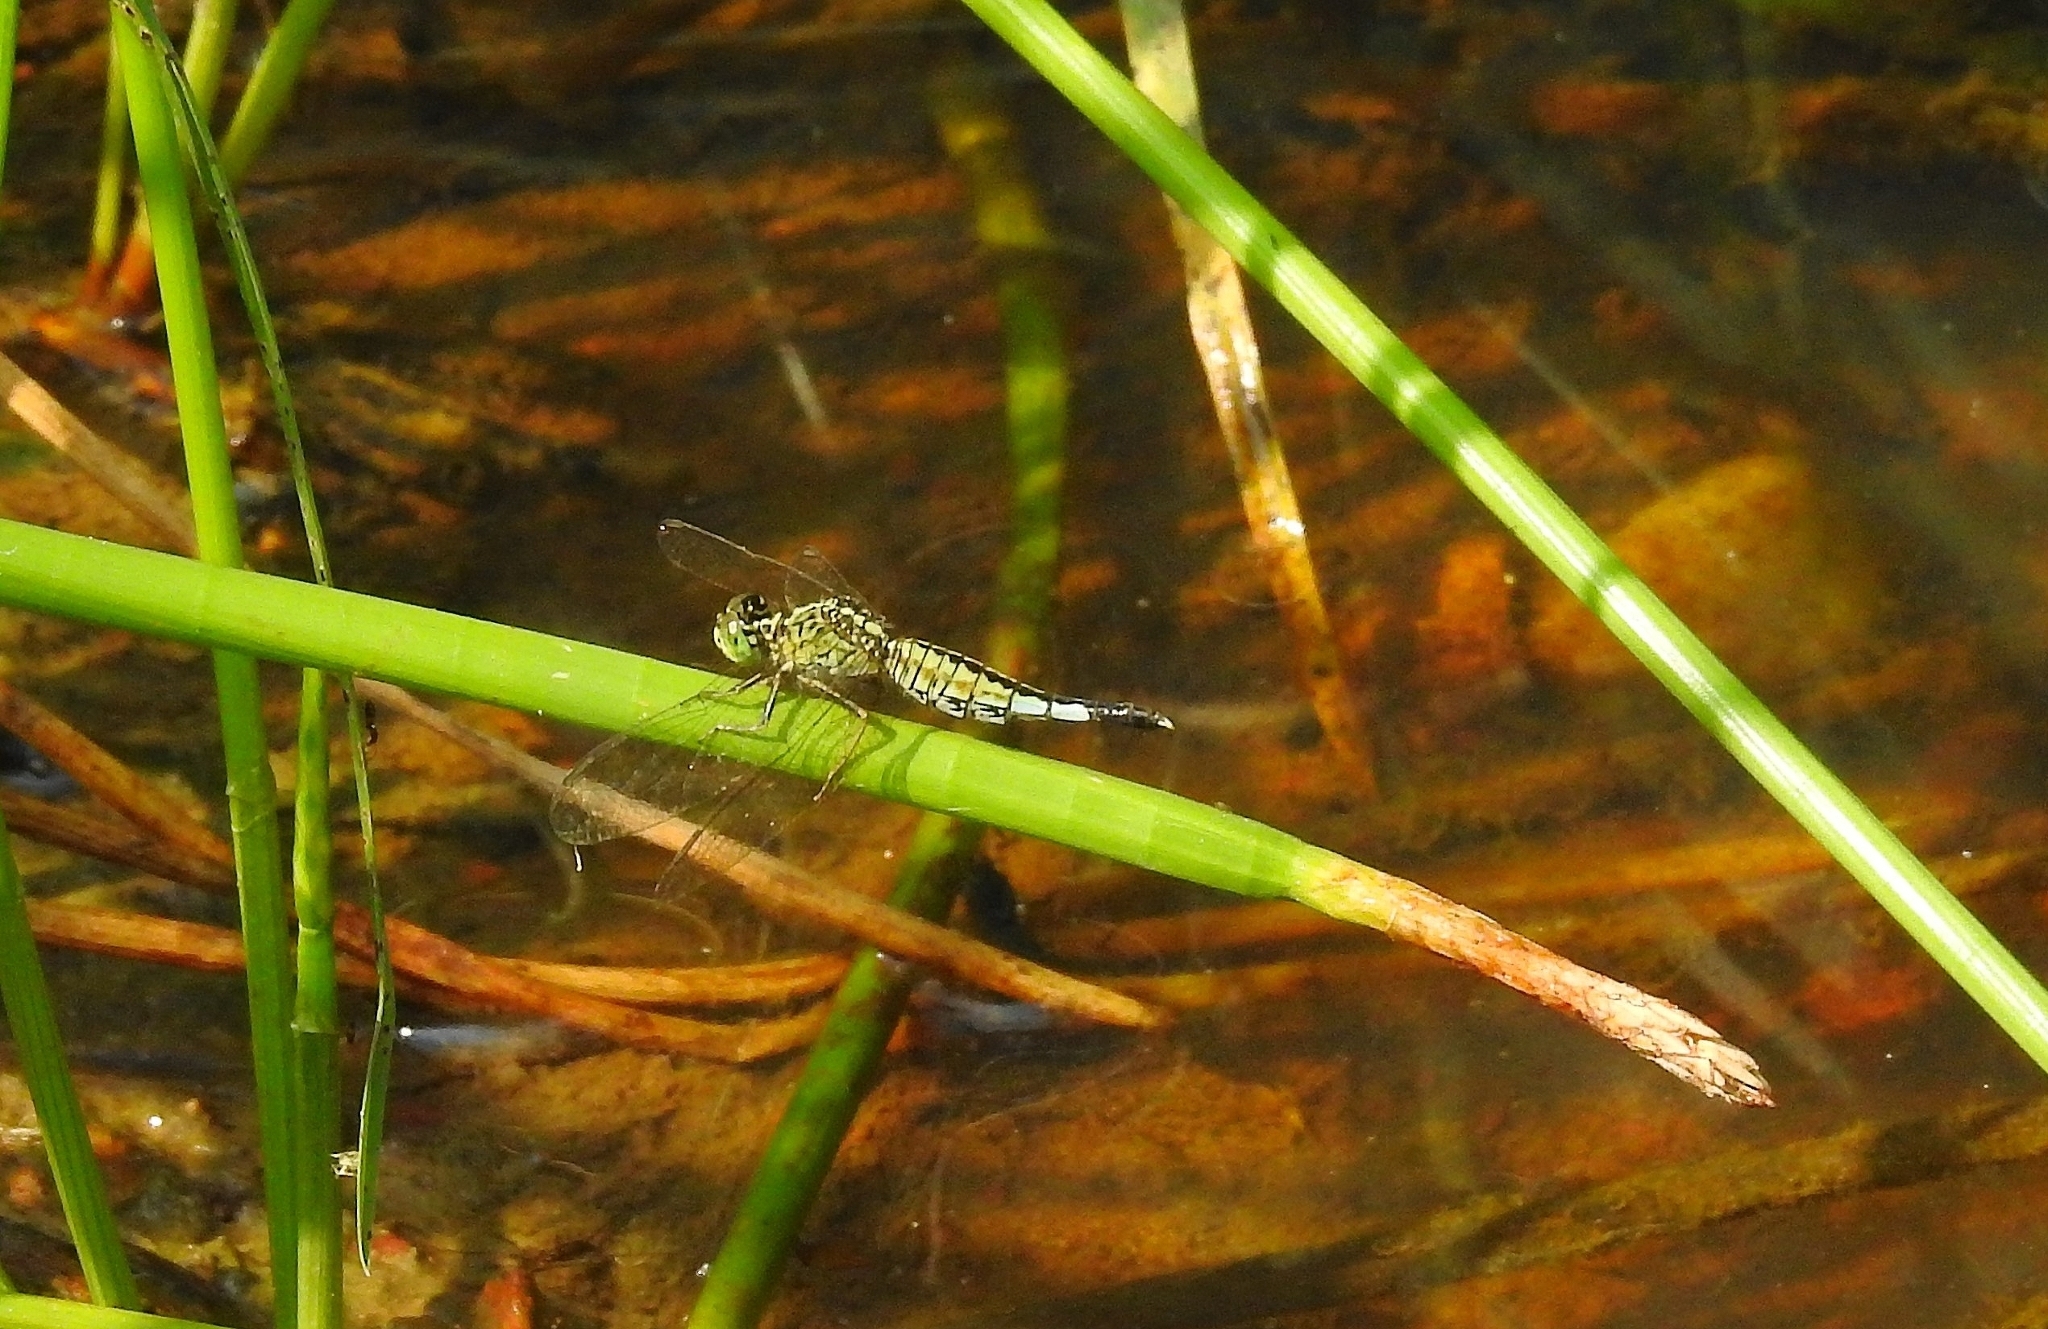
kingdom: Animalia
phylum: Arthropoda
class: Insecta
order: Odonata
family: Libellulidae
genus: Acisoma
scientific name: Acisoma panorpoides
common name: Asian pintail
